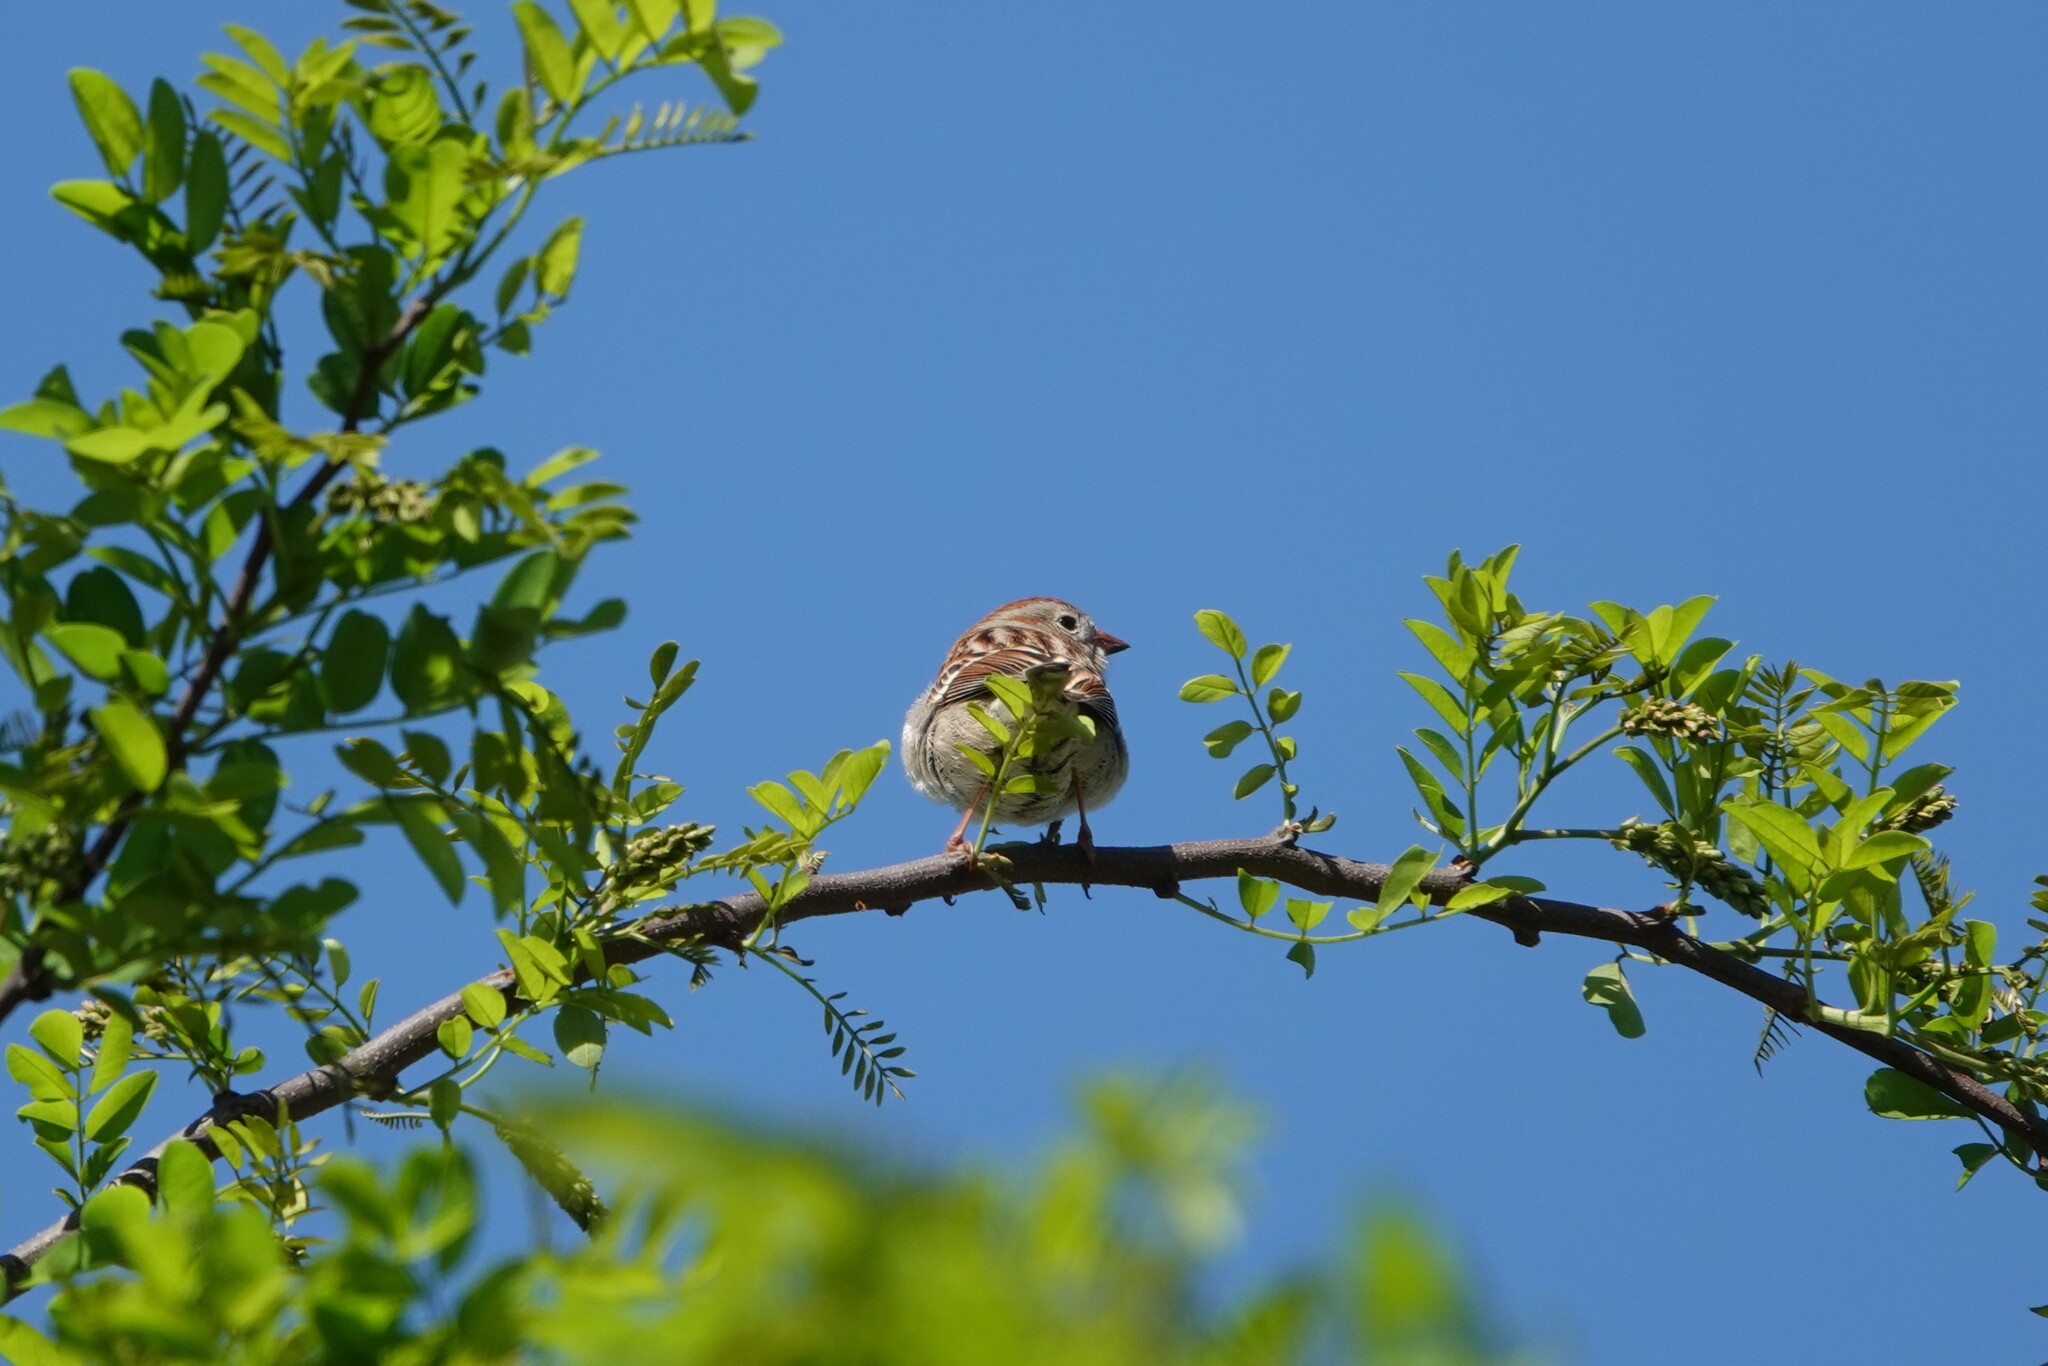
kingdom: Animalia
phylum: Chordata
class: Aves
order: Passeriformes
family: Passerellidae
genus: Spizella
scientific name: Spizella pusilla
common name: Field sparrow
